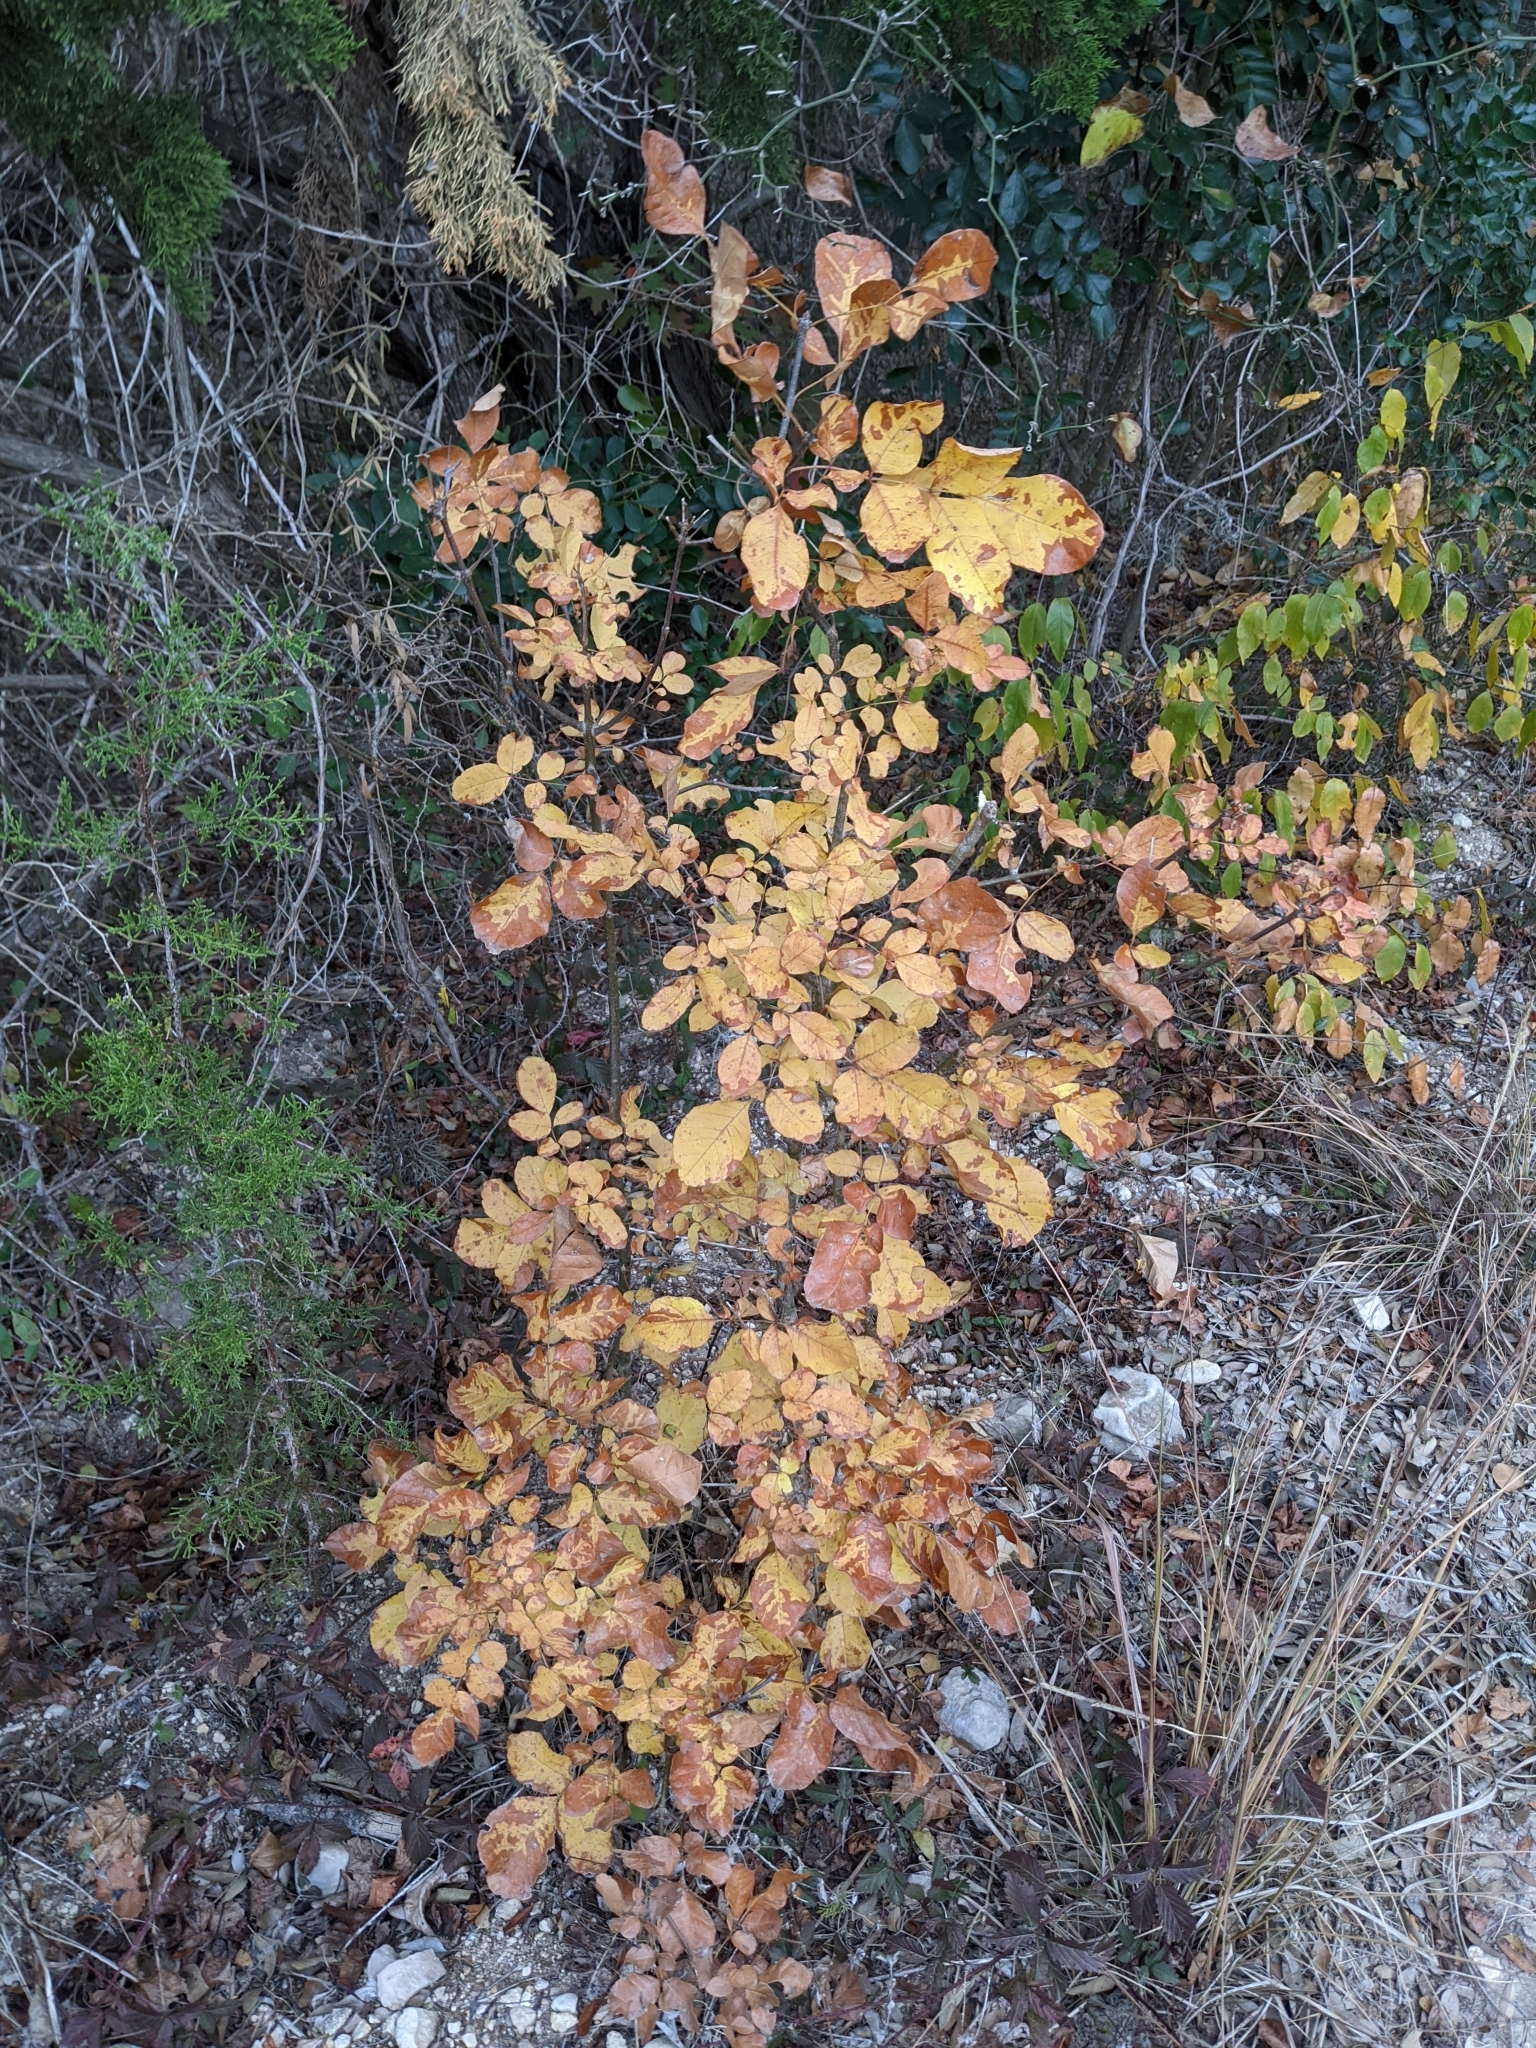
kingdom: Plantae
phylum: Tracheophyta
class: Magnoliopsida
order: Lamiales
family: Oleaceae
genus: Fraxinus
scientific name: Fraxinus albicans
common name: Texas ash
